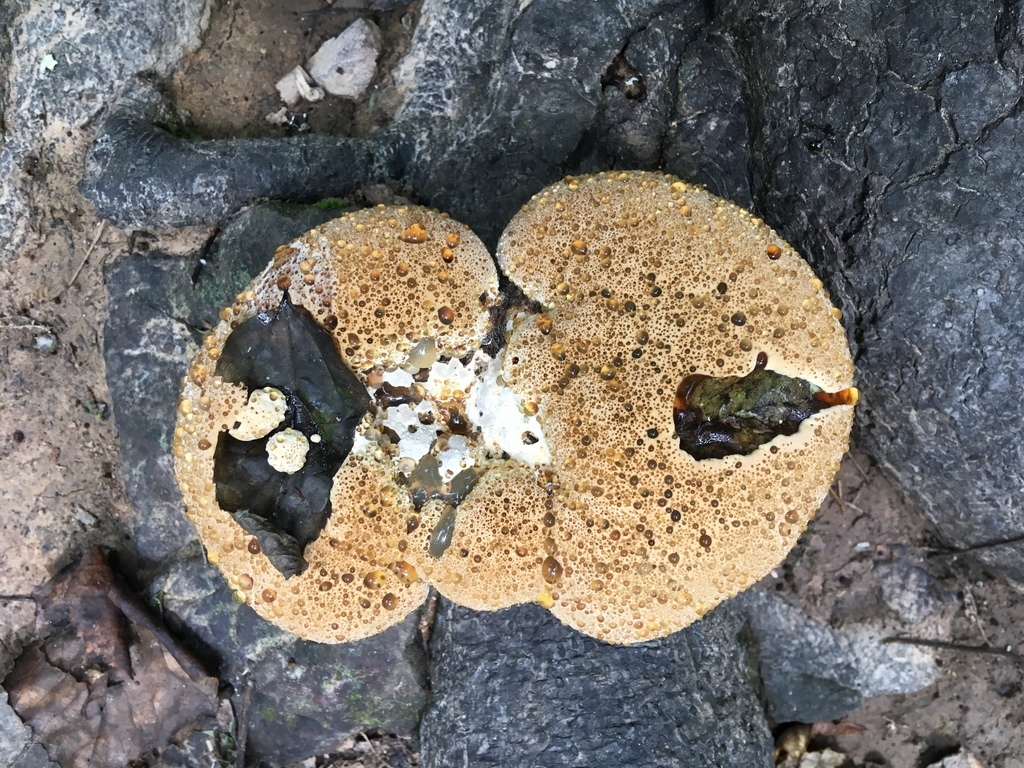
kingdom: Fungi
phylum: Basidiomycota
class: Agaricomycetes
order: Hymenochaetales
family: Hymenochaetaceae
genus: Pseudoinonotus
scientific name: Pseudoinonotus dryadeus
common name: Oak bracket
